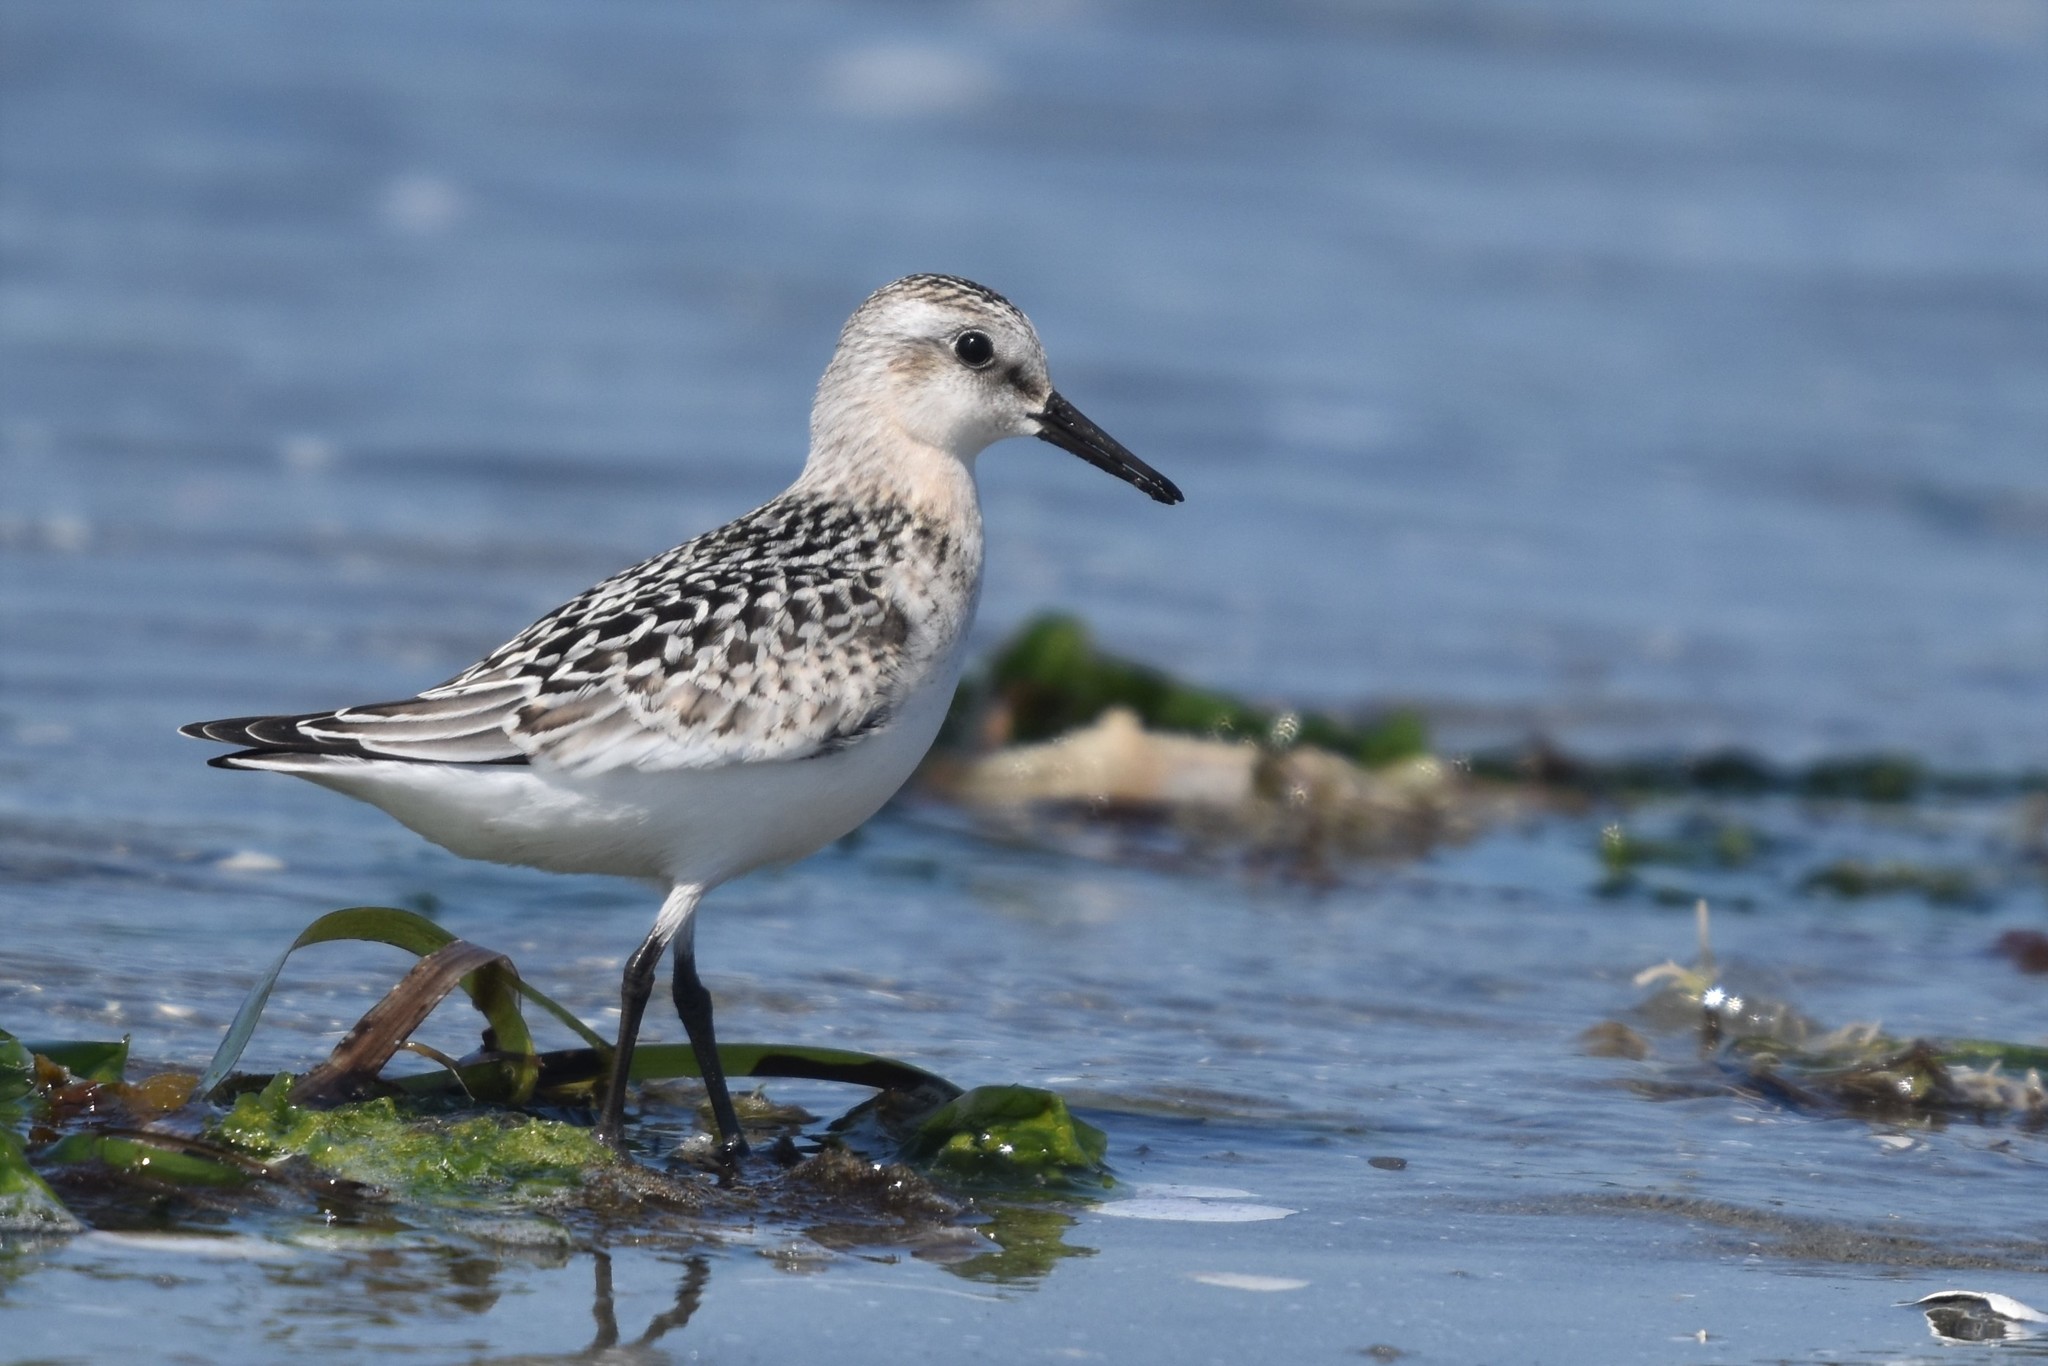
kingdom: Animalia
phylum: Chordata
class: Aves
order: Charadriiformes
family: Scolopacidae
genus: Calidris
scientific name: Calidris alba
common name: Sanderling
